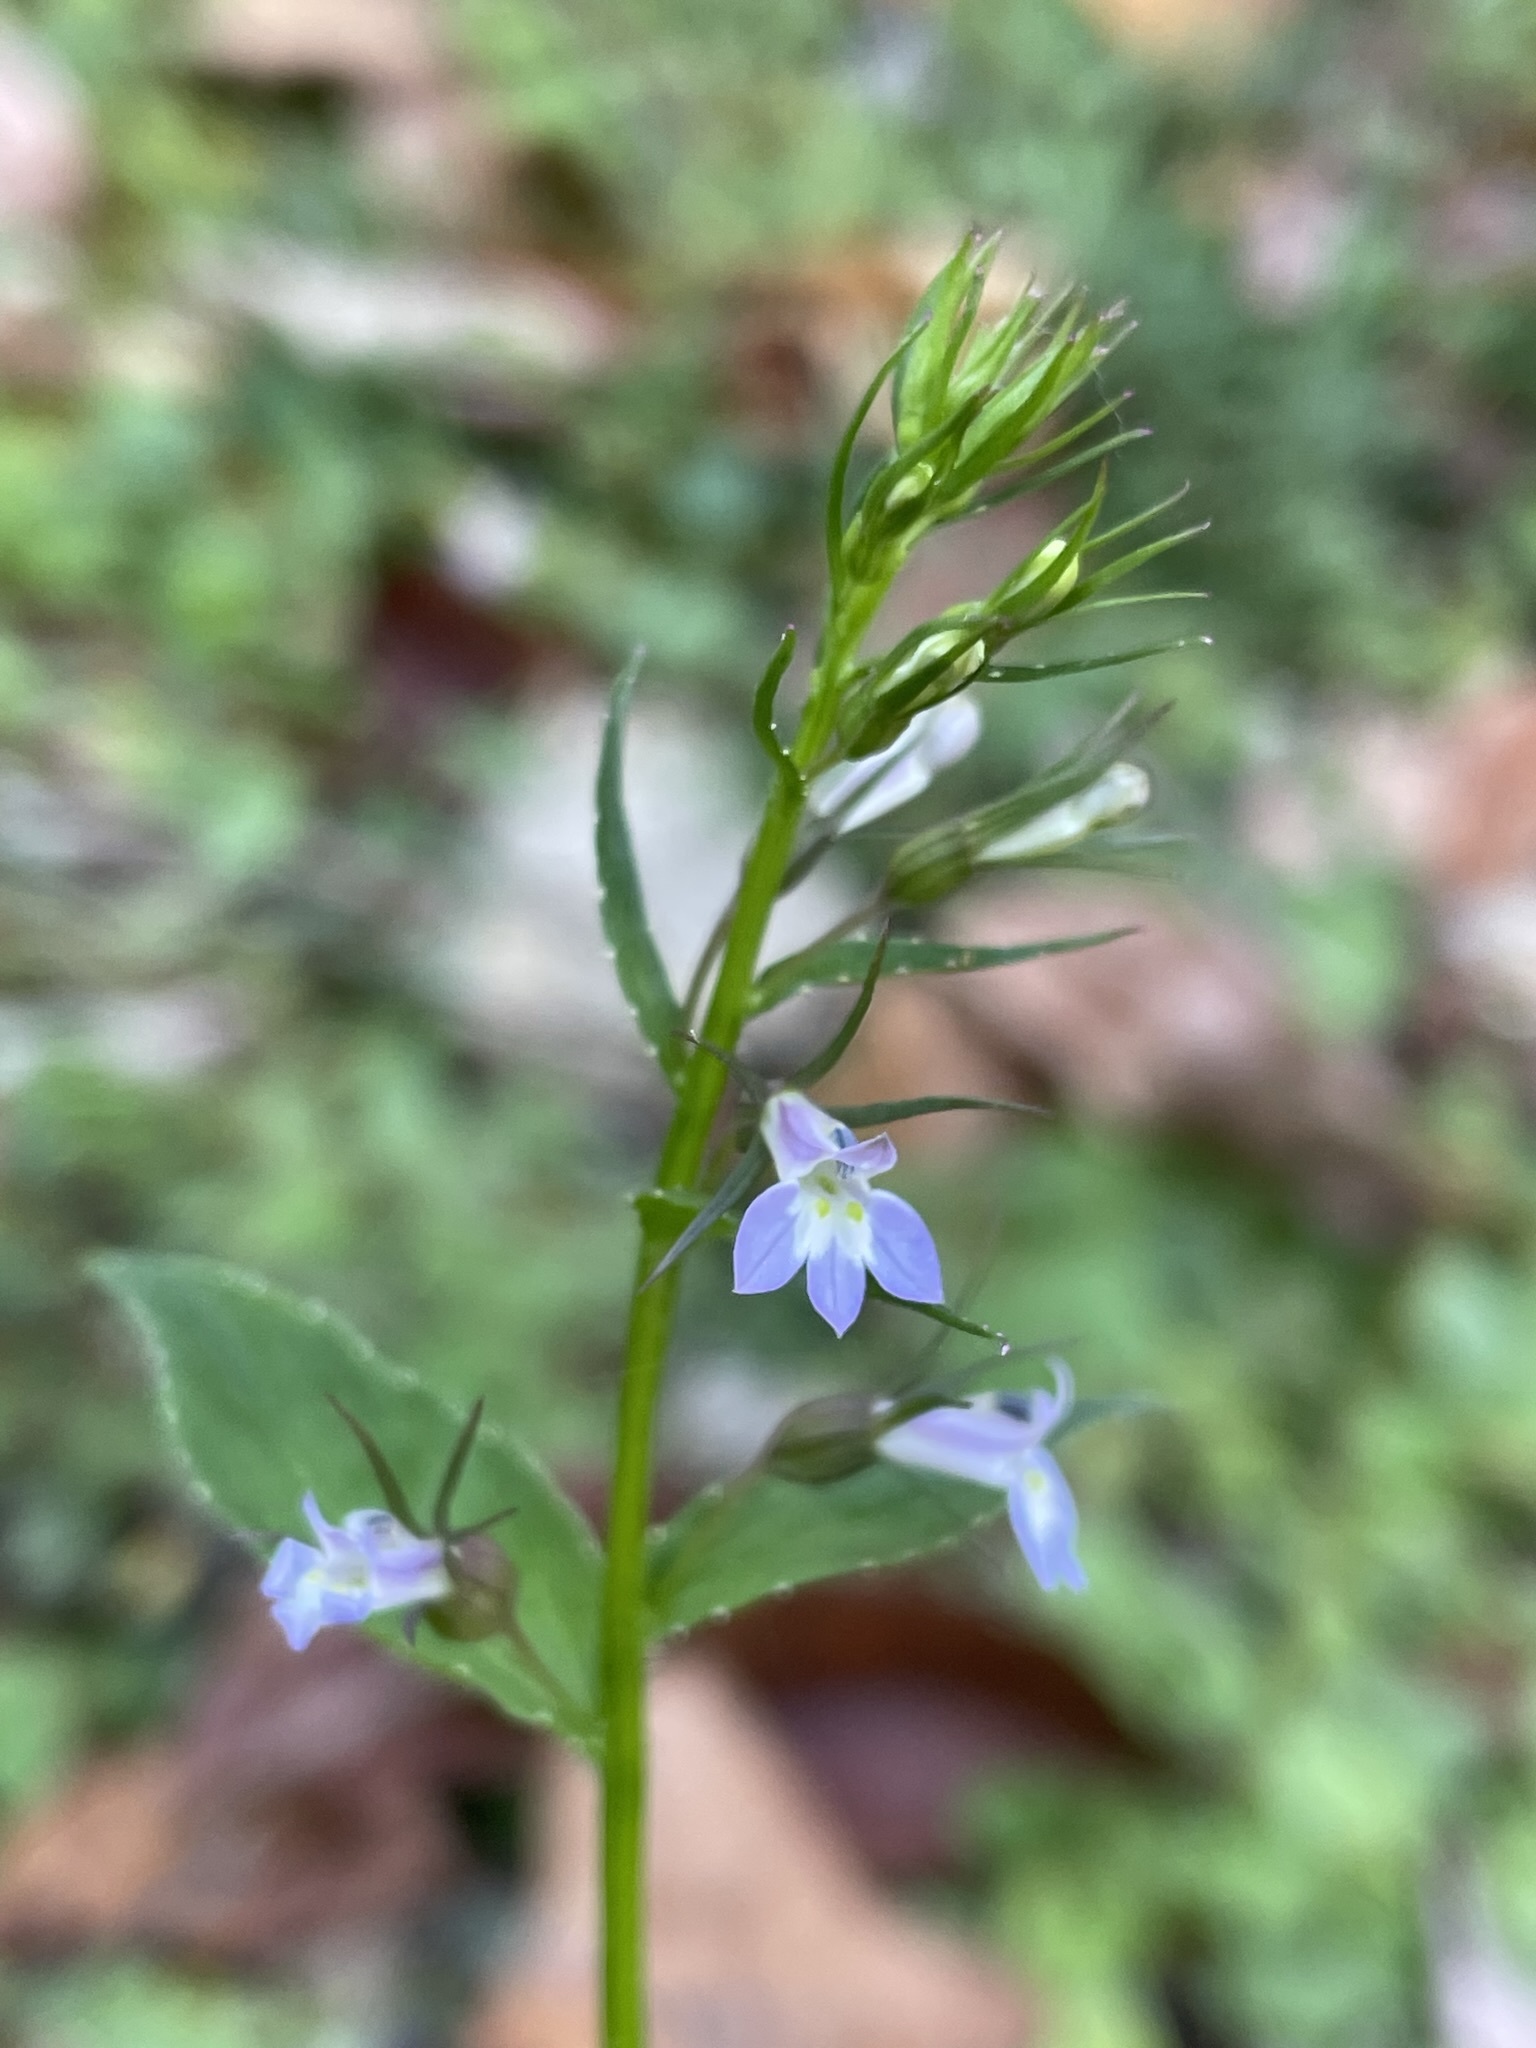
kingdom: Plantae
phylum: Tracheophyta
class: Magnoliopsida
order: Asterales
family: Campanulaceae
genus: Lobelia
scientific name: Lobelia inflata
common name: Indian tobacco
